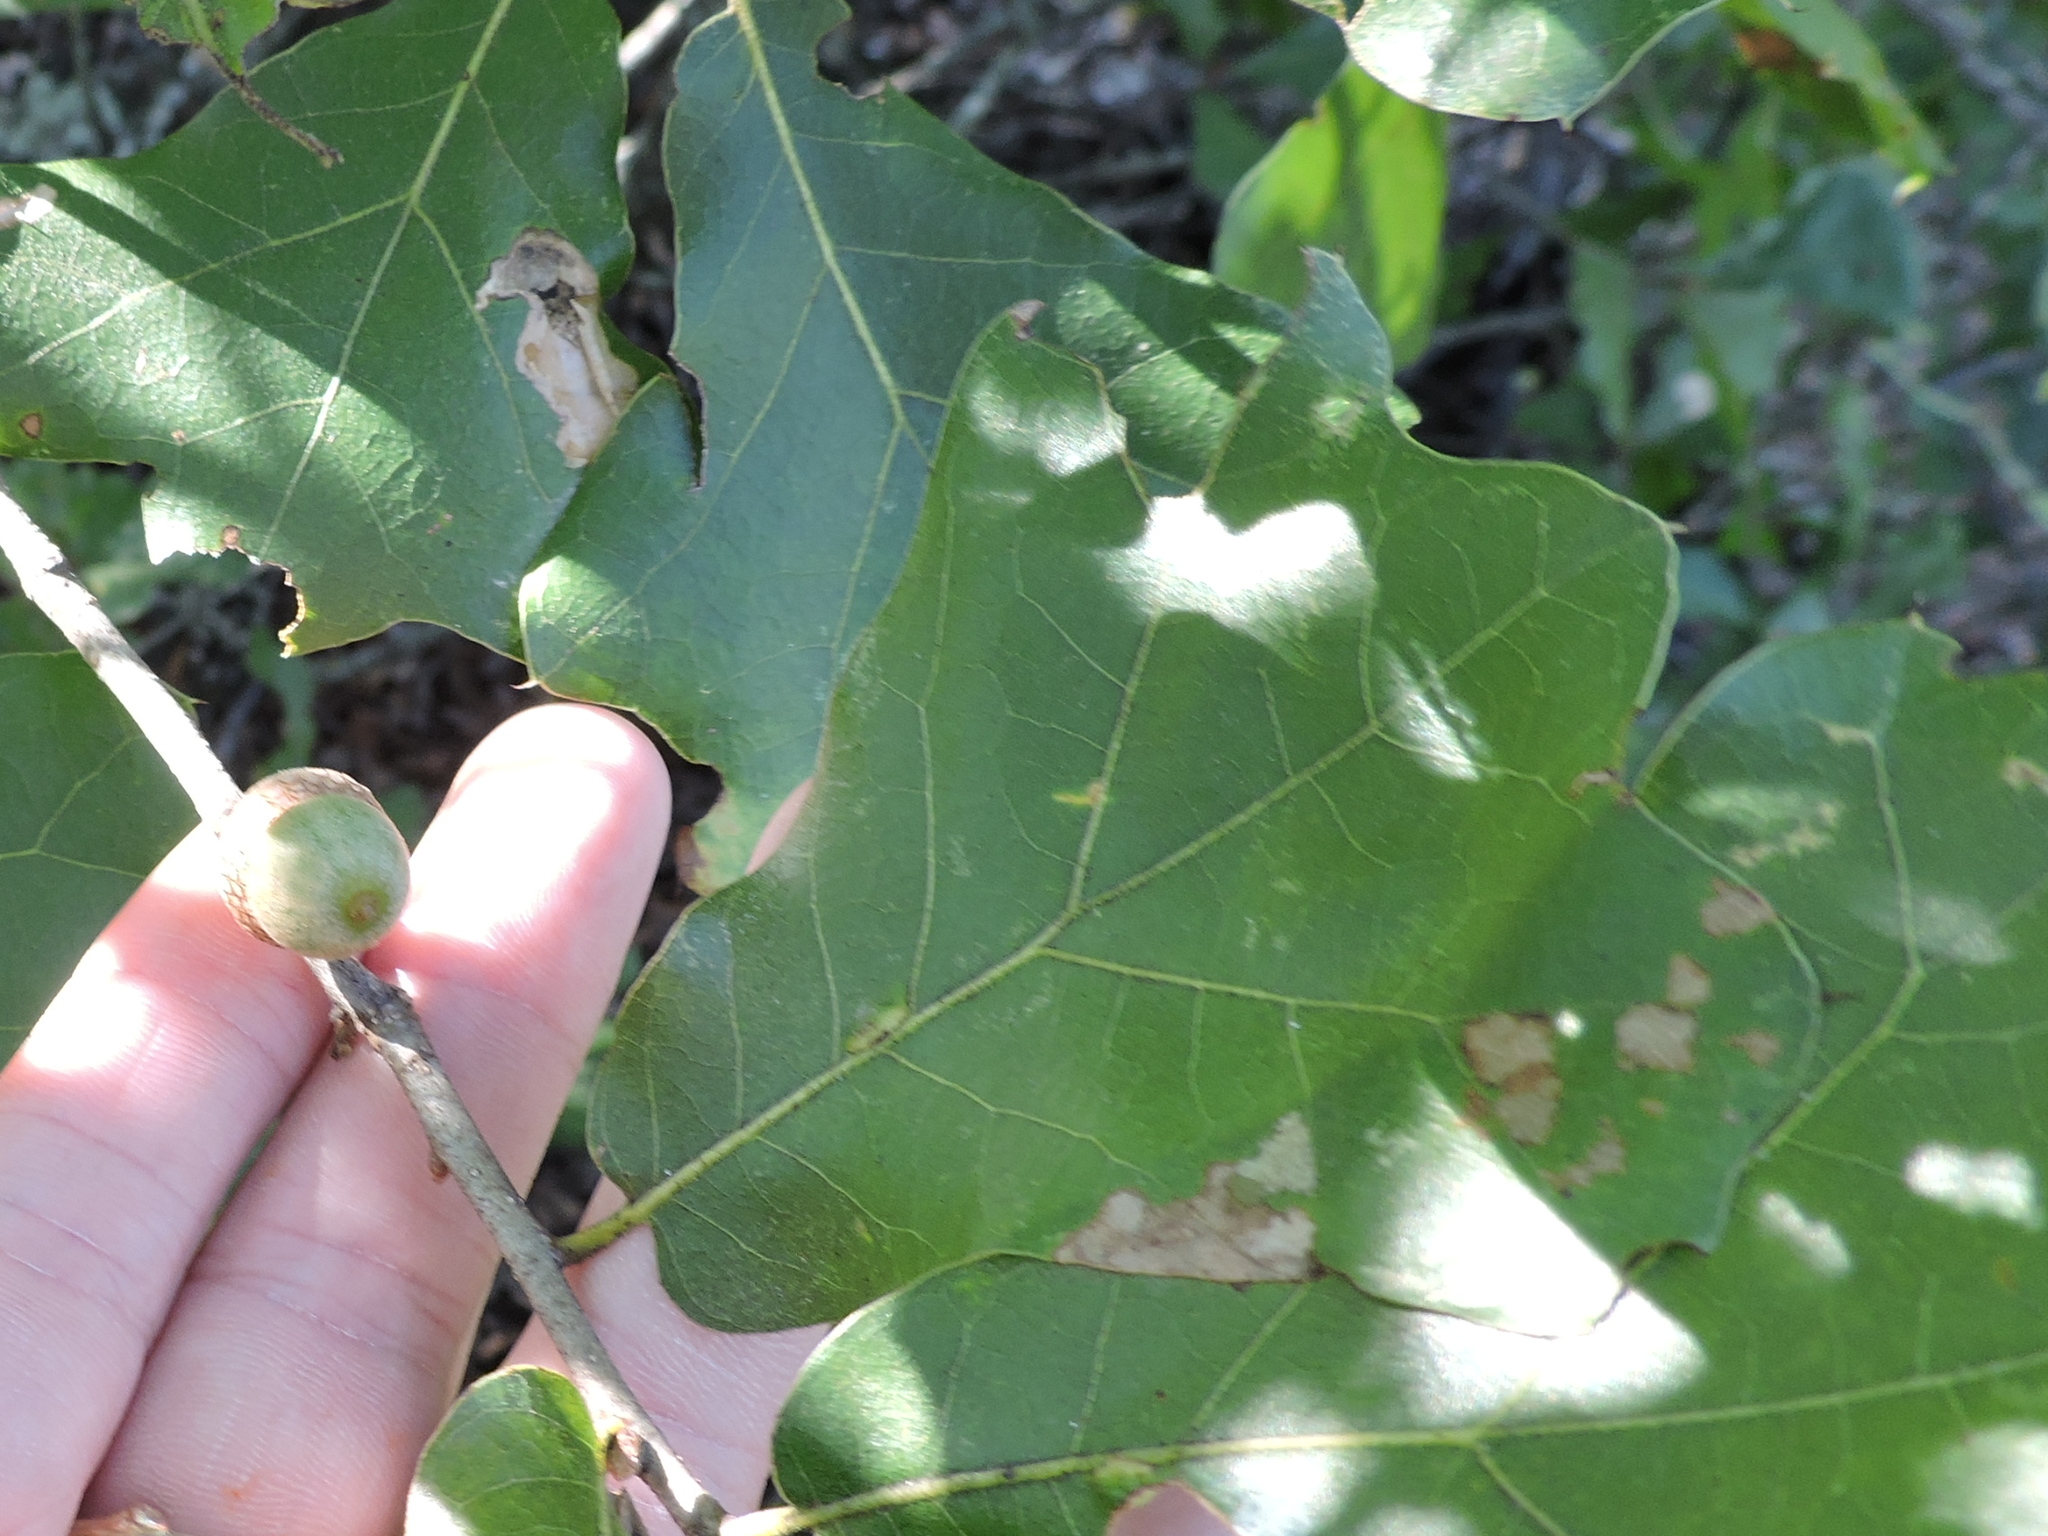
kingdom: Plantae
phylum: Tracheophyta
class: Magnoliopsida
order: Fagales
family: Fagaceae
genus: Quercus
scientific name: Quercus marilandica
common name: Blackjack oak
